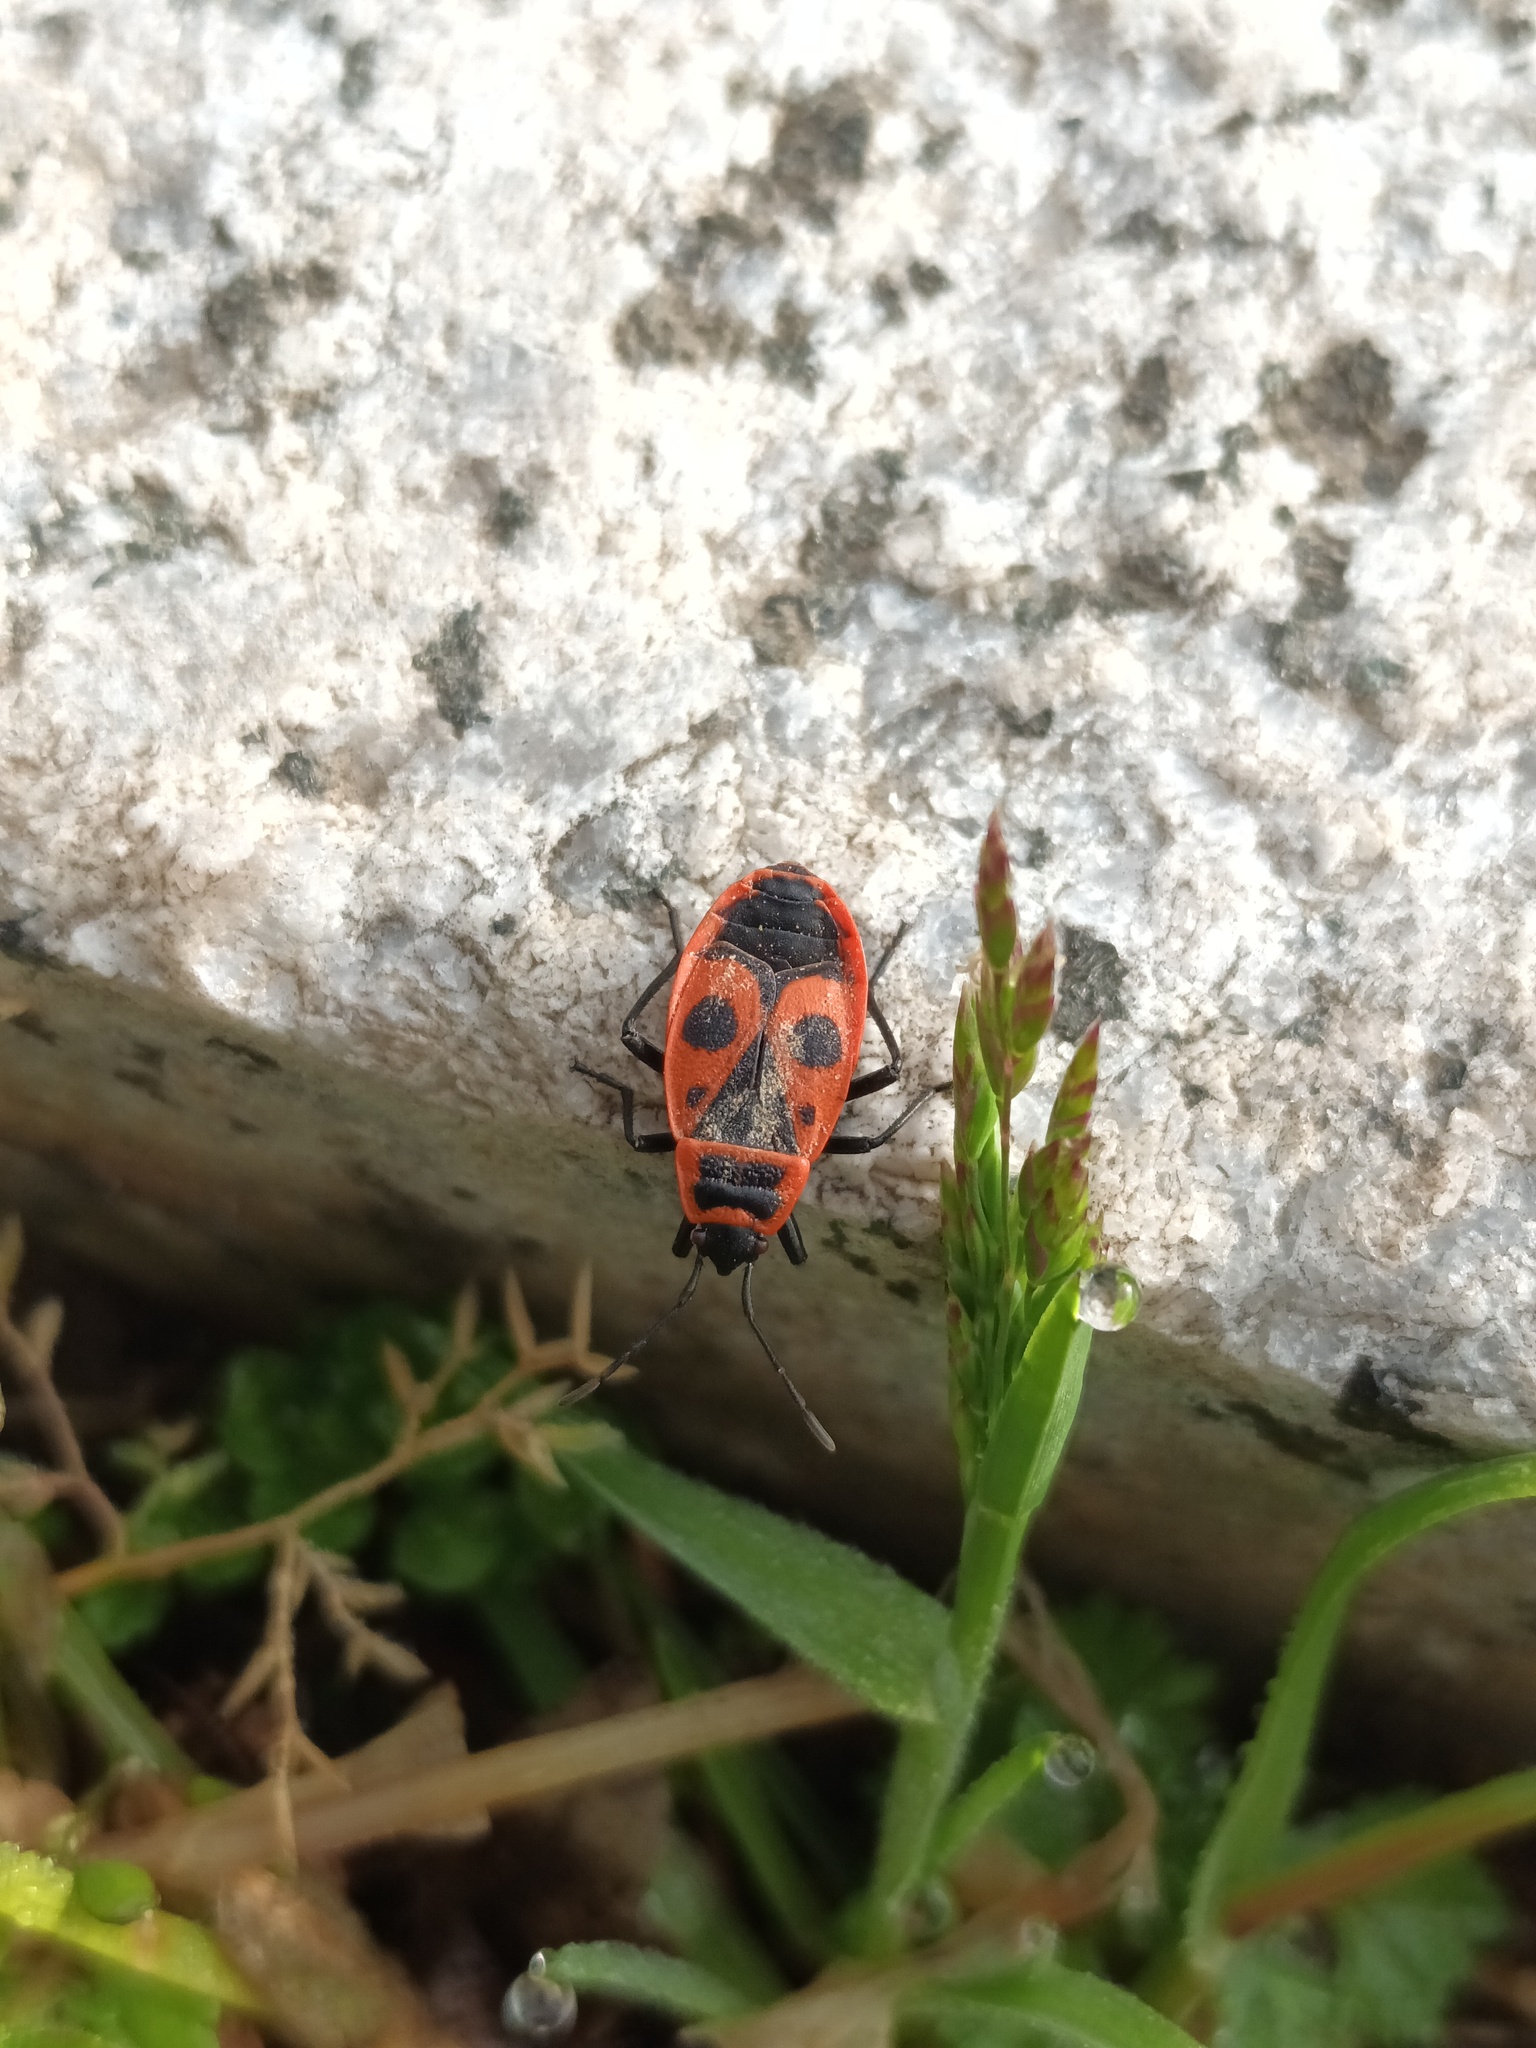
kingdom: Animalia
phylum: Arthropoda
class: Insecta
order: Hemiptera
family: Pyrrhocoridae
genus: Pyrrhocoris
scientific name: Pyrrhocoris apterus
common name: Firebug
